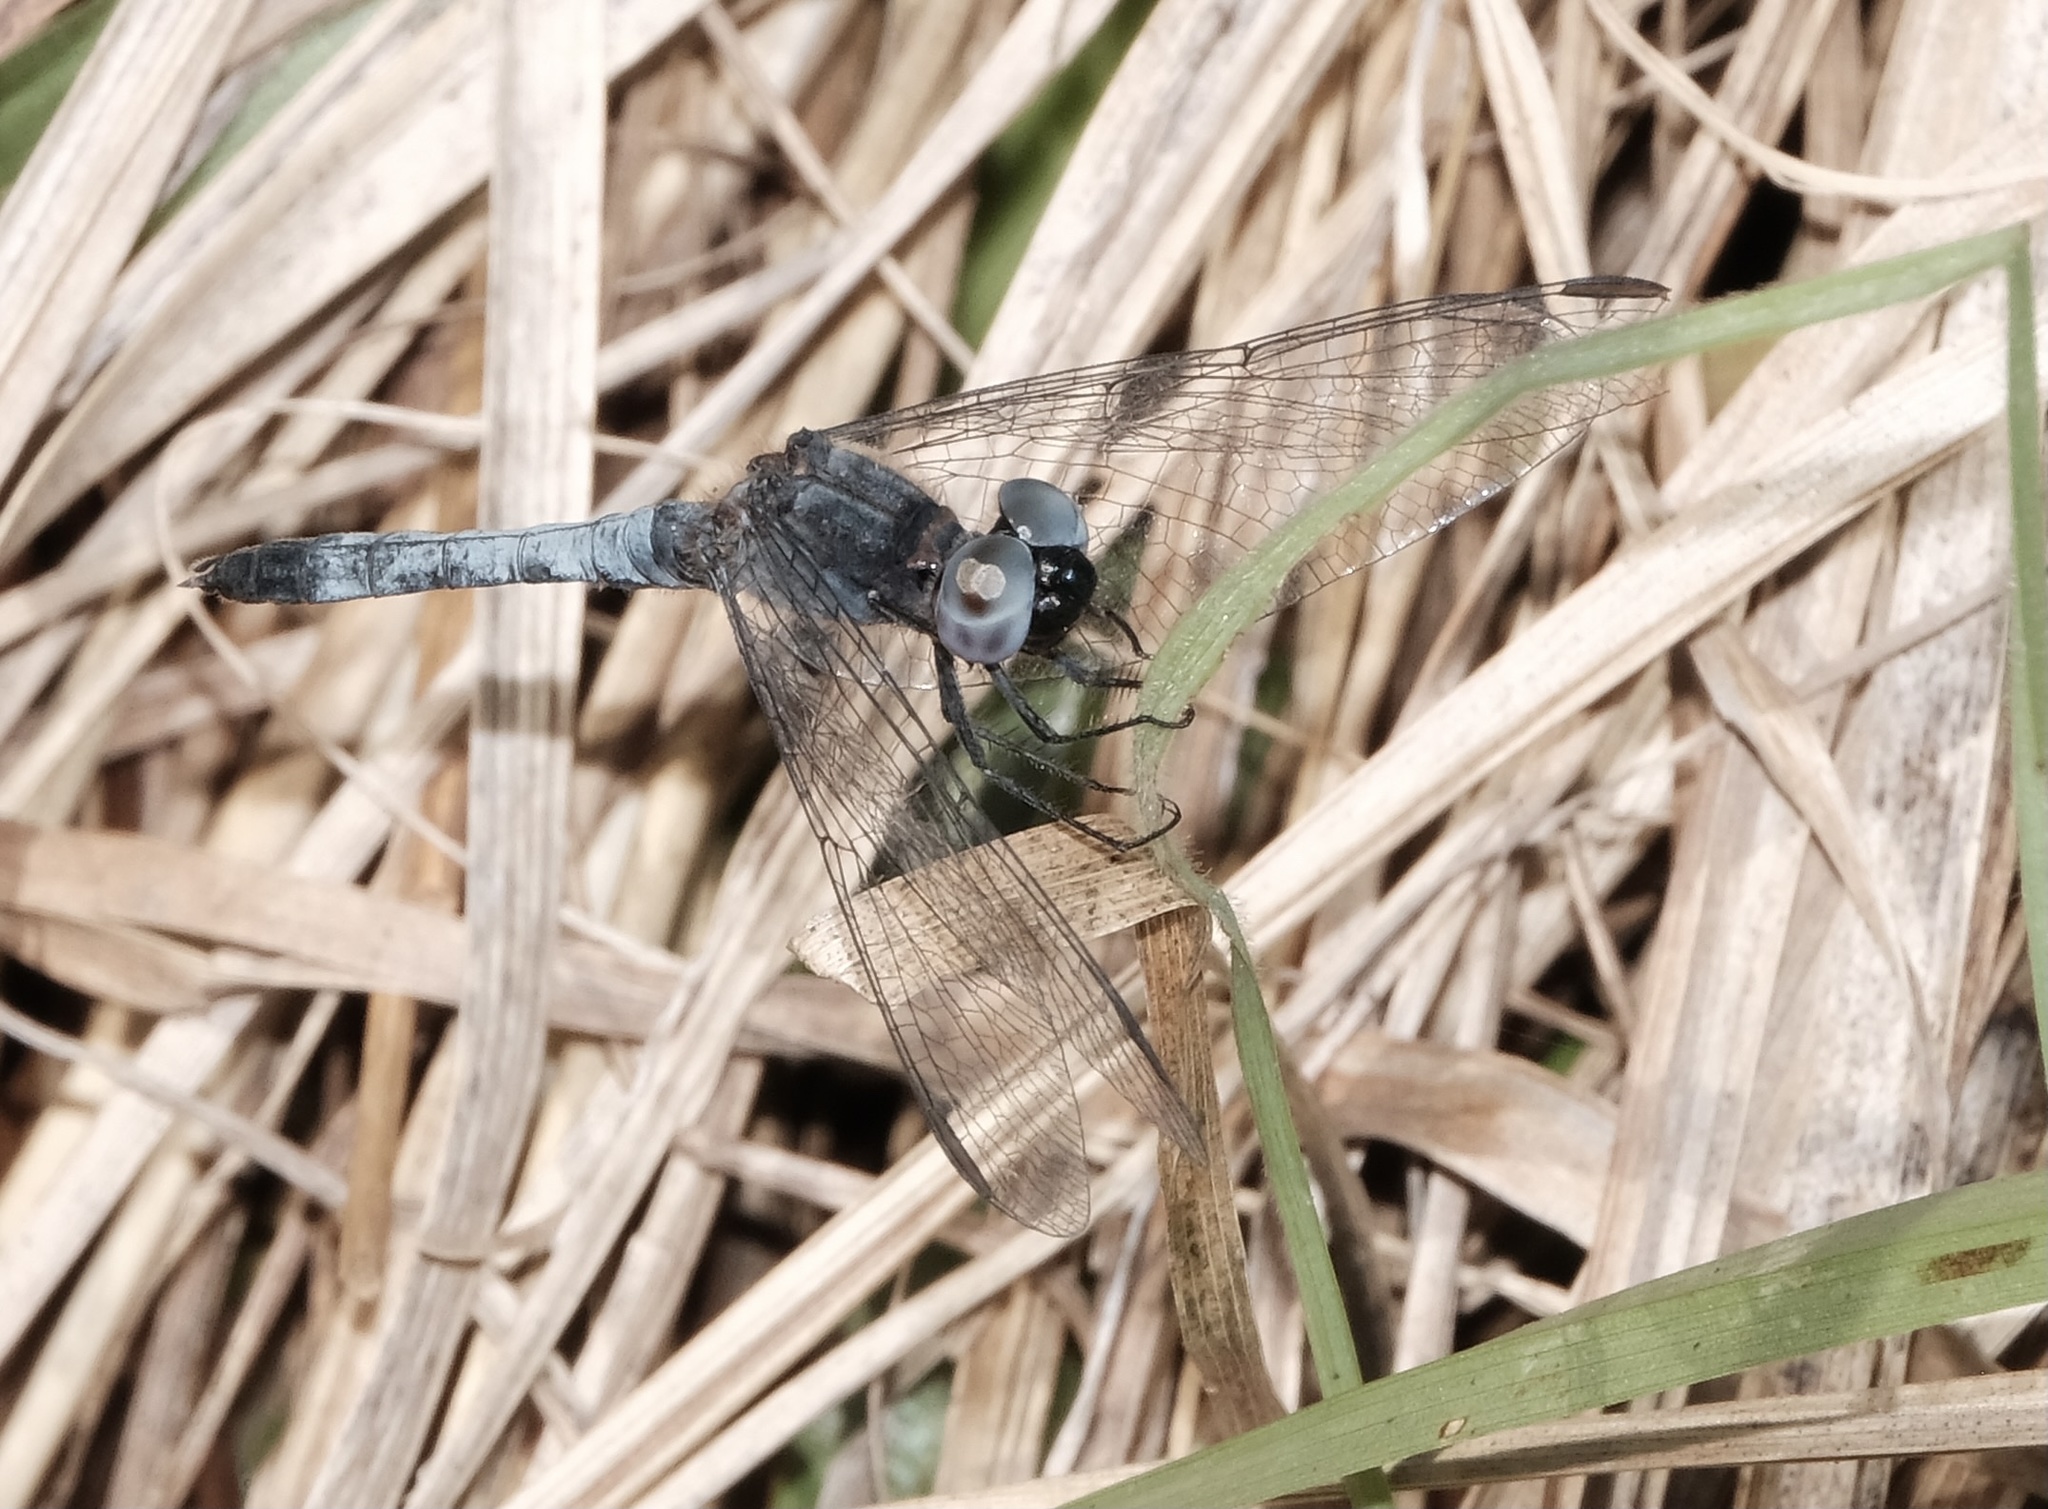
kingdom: Animalia
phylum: Arthropoda
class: Insecta
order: Odonata
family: Libellulidae
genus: Erythrodiplax
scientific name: Erythrodiplax minuscula
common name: Little blue dragonlet
